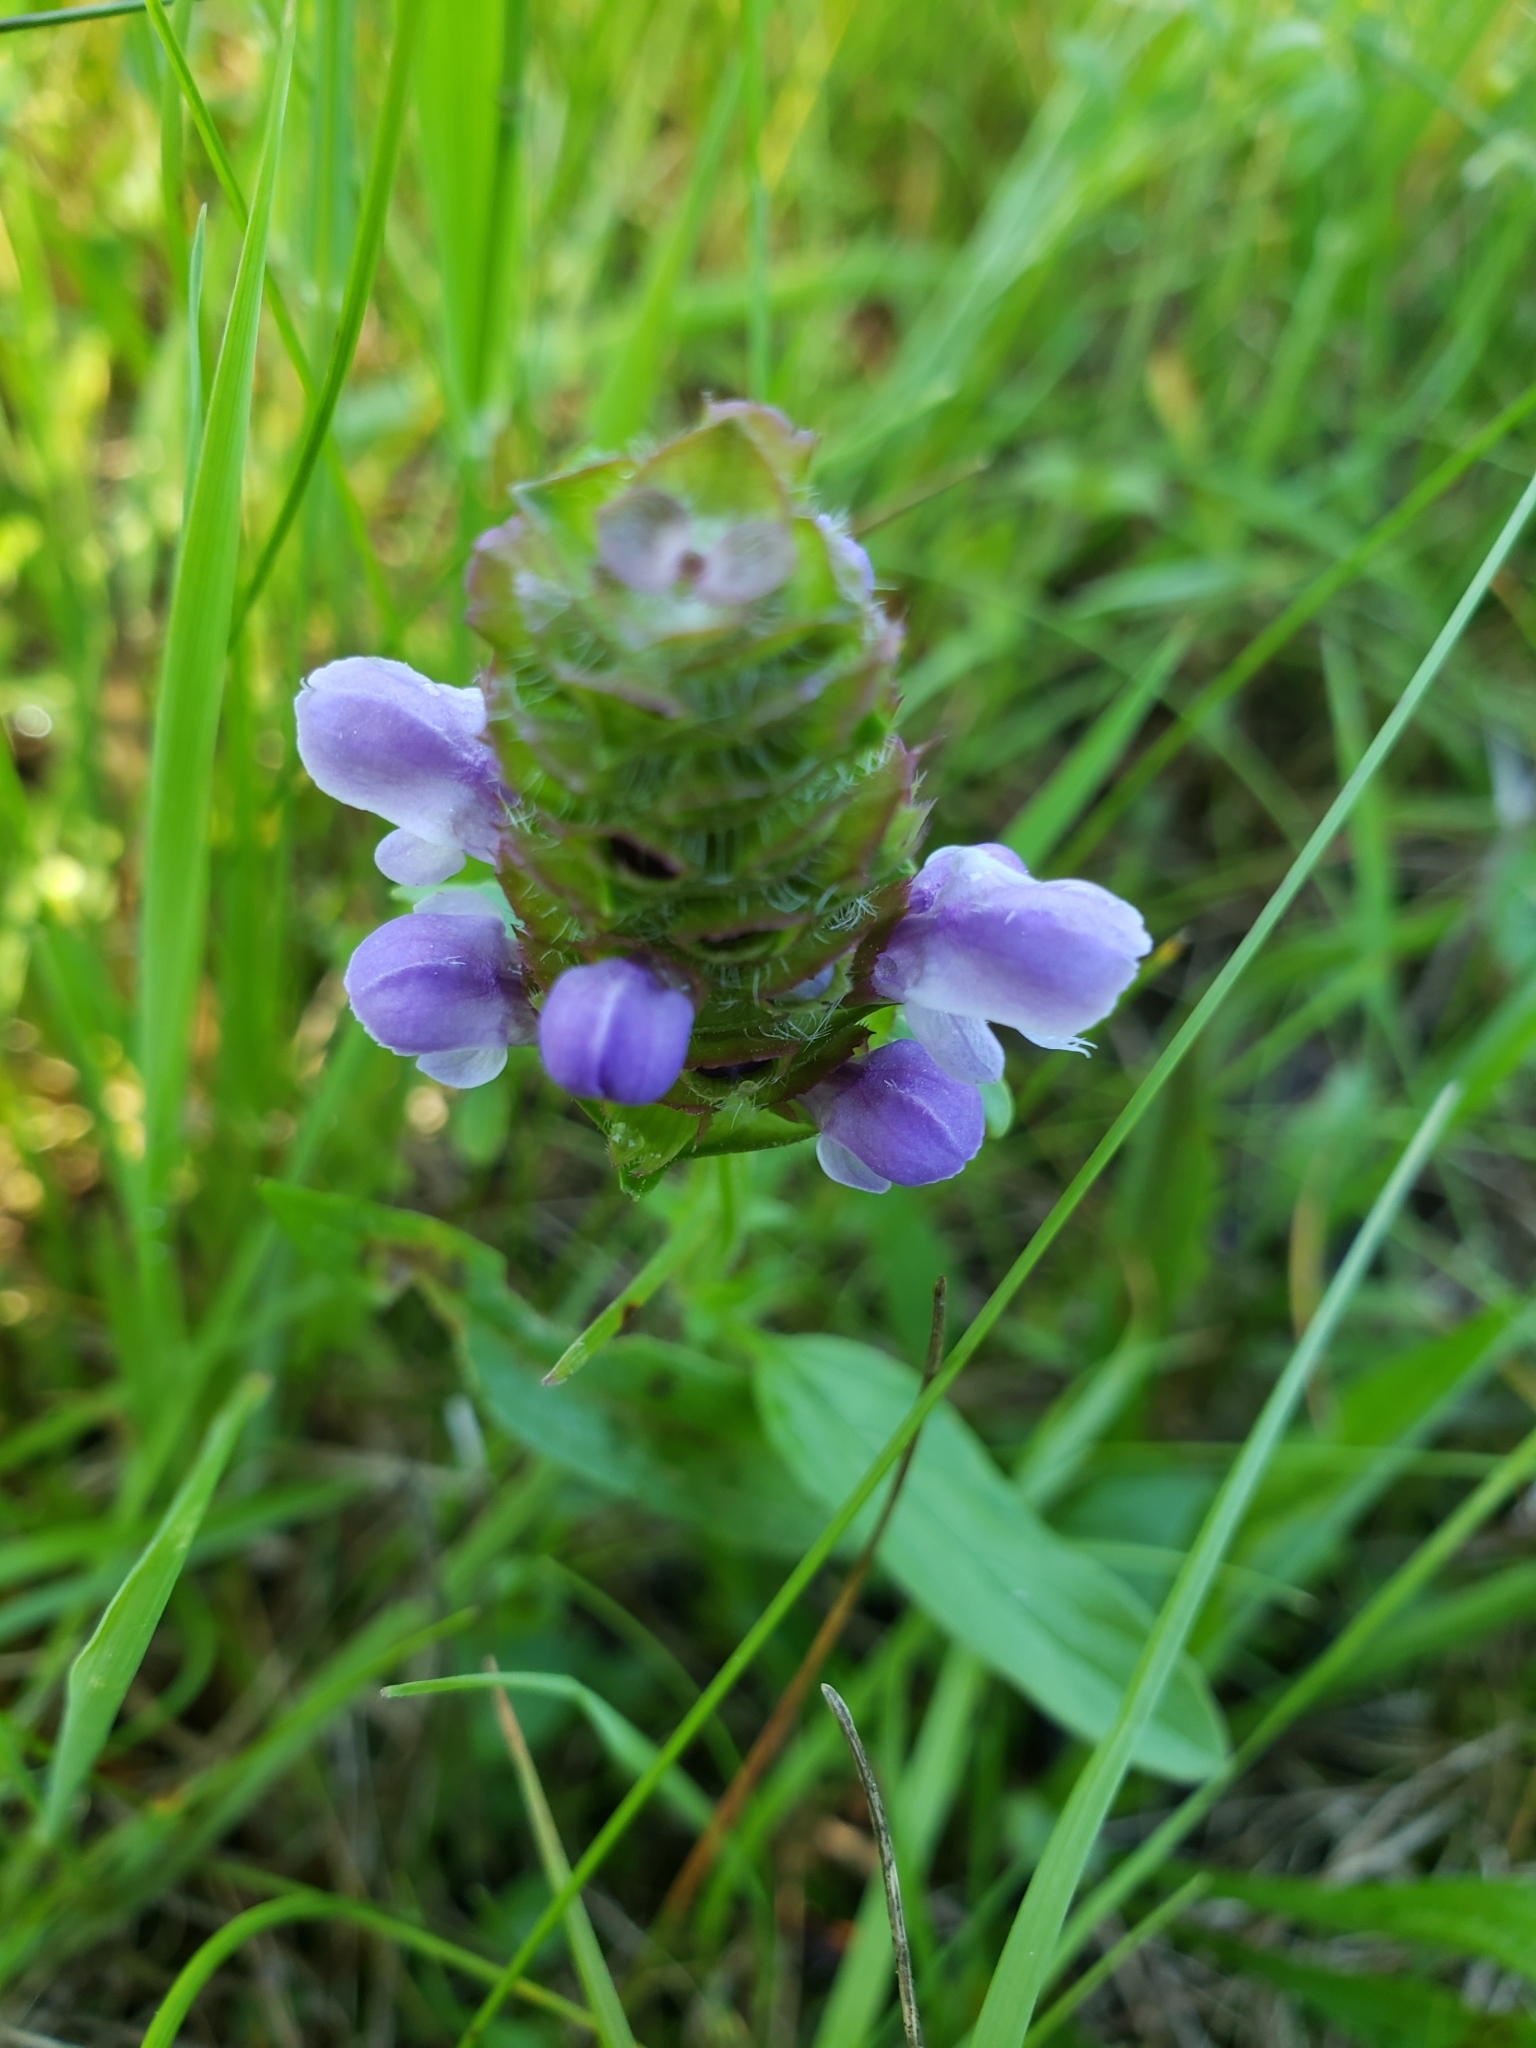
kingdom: Plantae
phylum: Tracheophyta
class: Magnoliopsida
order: Lamiales
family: Lamiaceae
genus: Prunella
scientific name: Prunella vulgaris
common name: Heal-all
